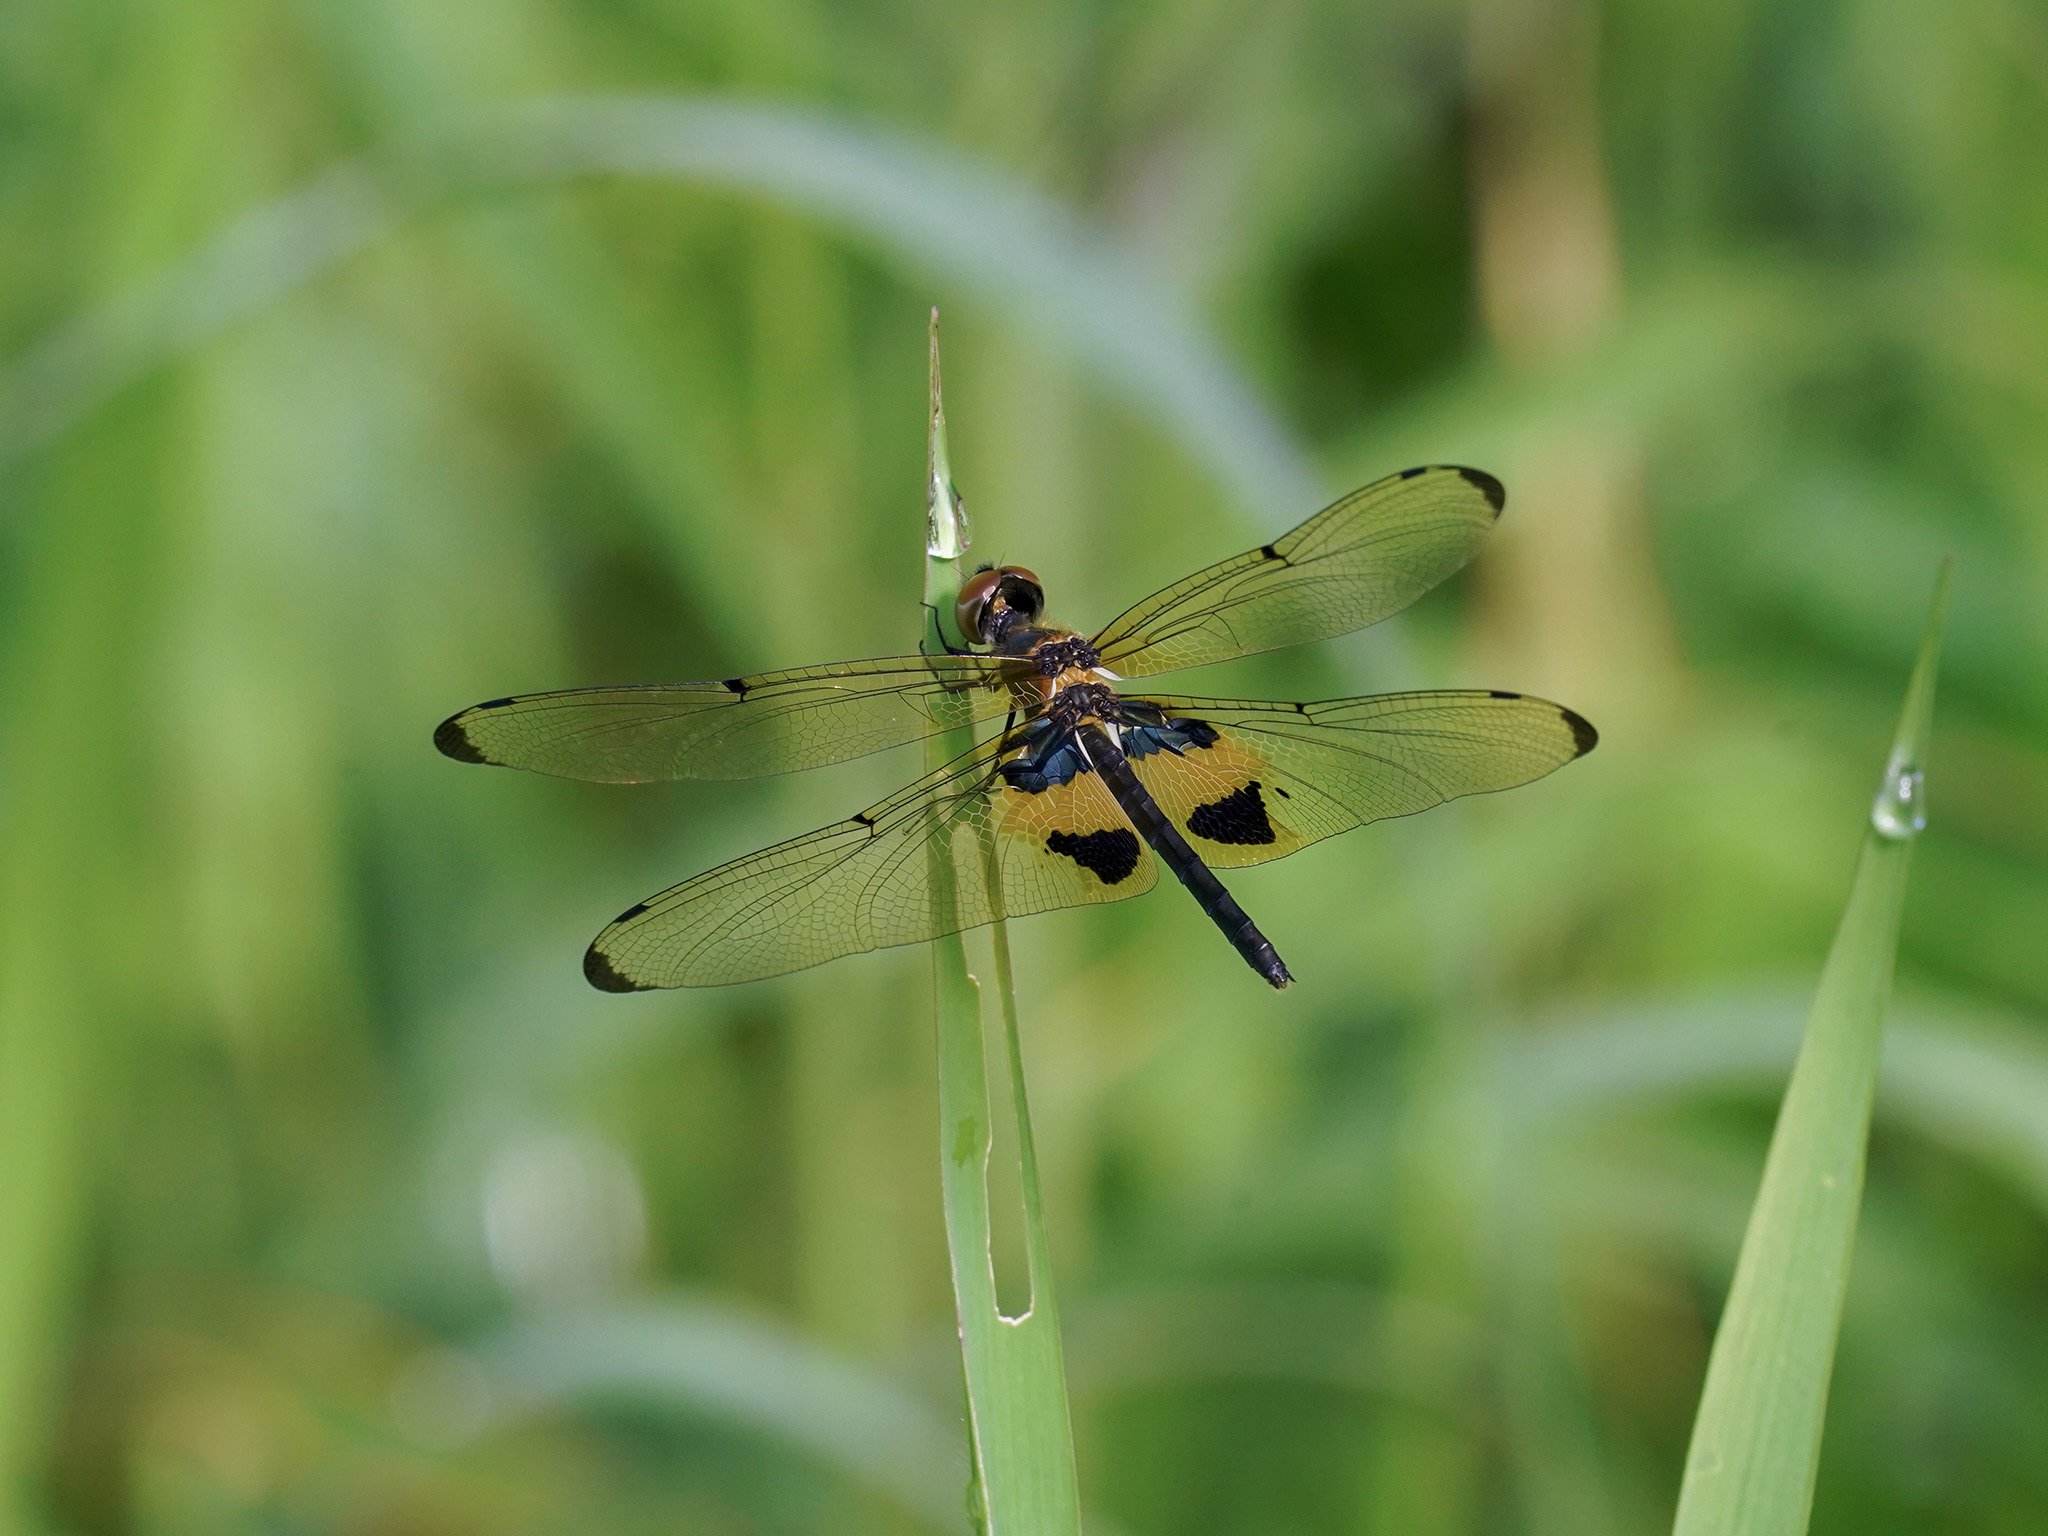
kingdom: Animalia
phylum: Arthropoda
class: Insecta
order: Odonata
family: Libellulidae
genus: Rhyothemis
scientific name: Rhyothemis phyllis
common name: Yellow-barred flutterer
